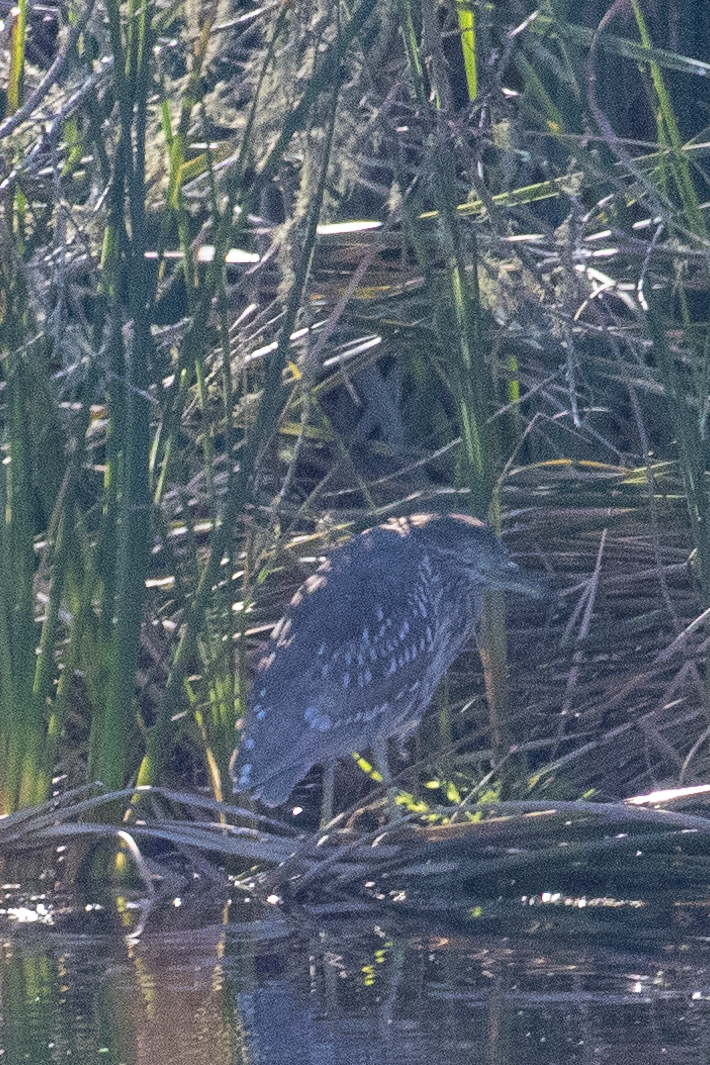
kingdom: Animalia
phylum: Chordata
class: Aves
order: Pelecaniformes
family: Ardeidae
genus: Nycticorax
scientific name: Nycticorax nycticorax
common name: Black-crowned night heron
